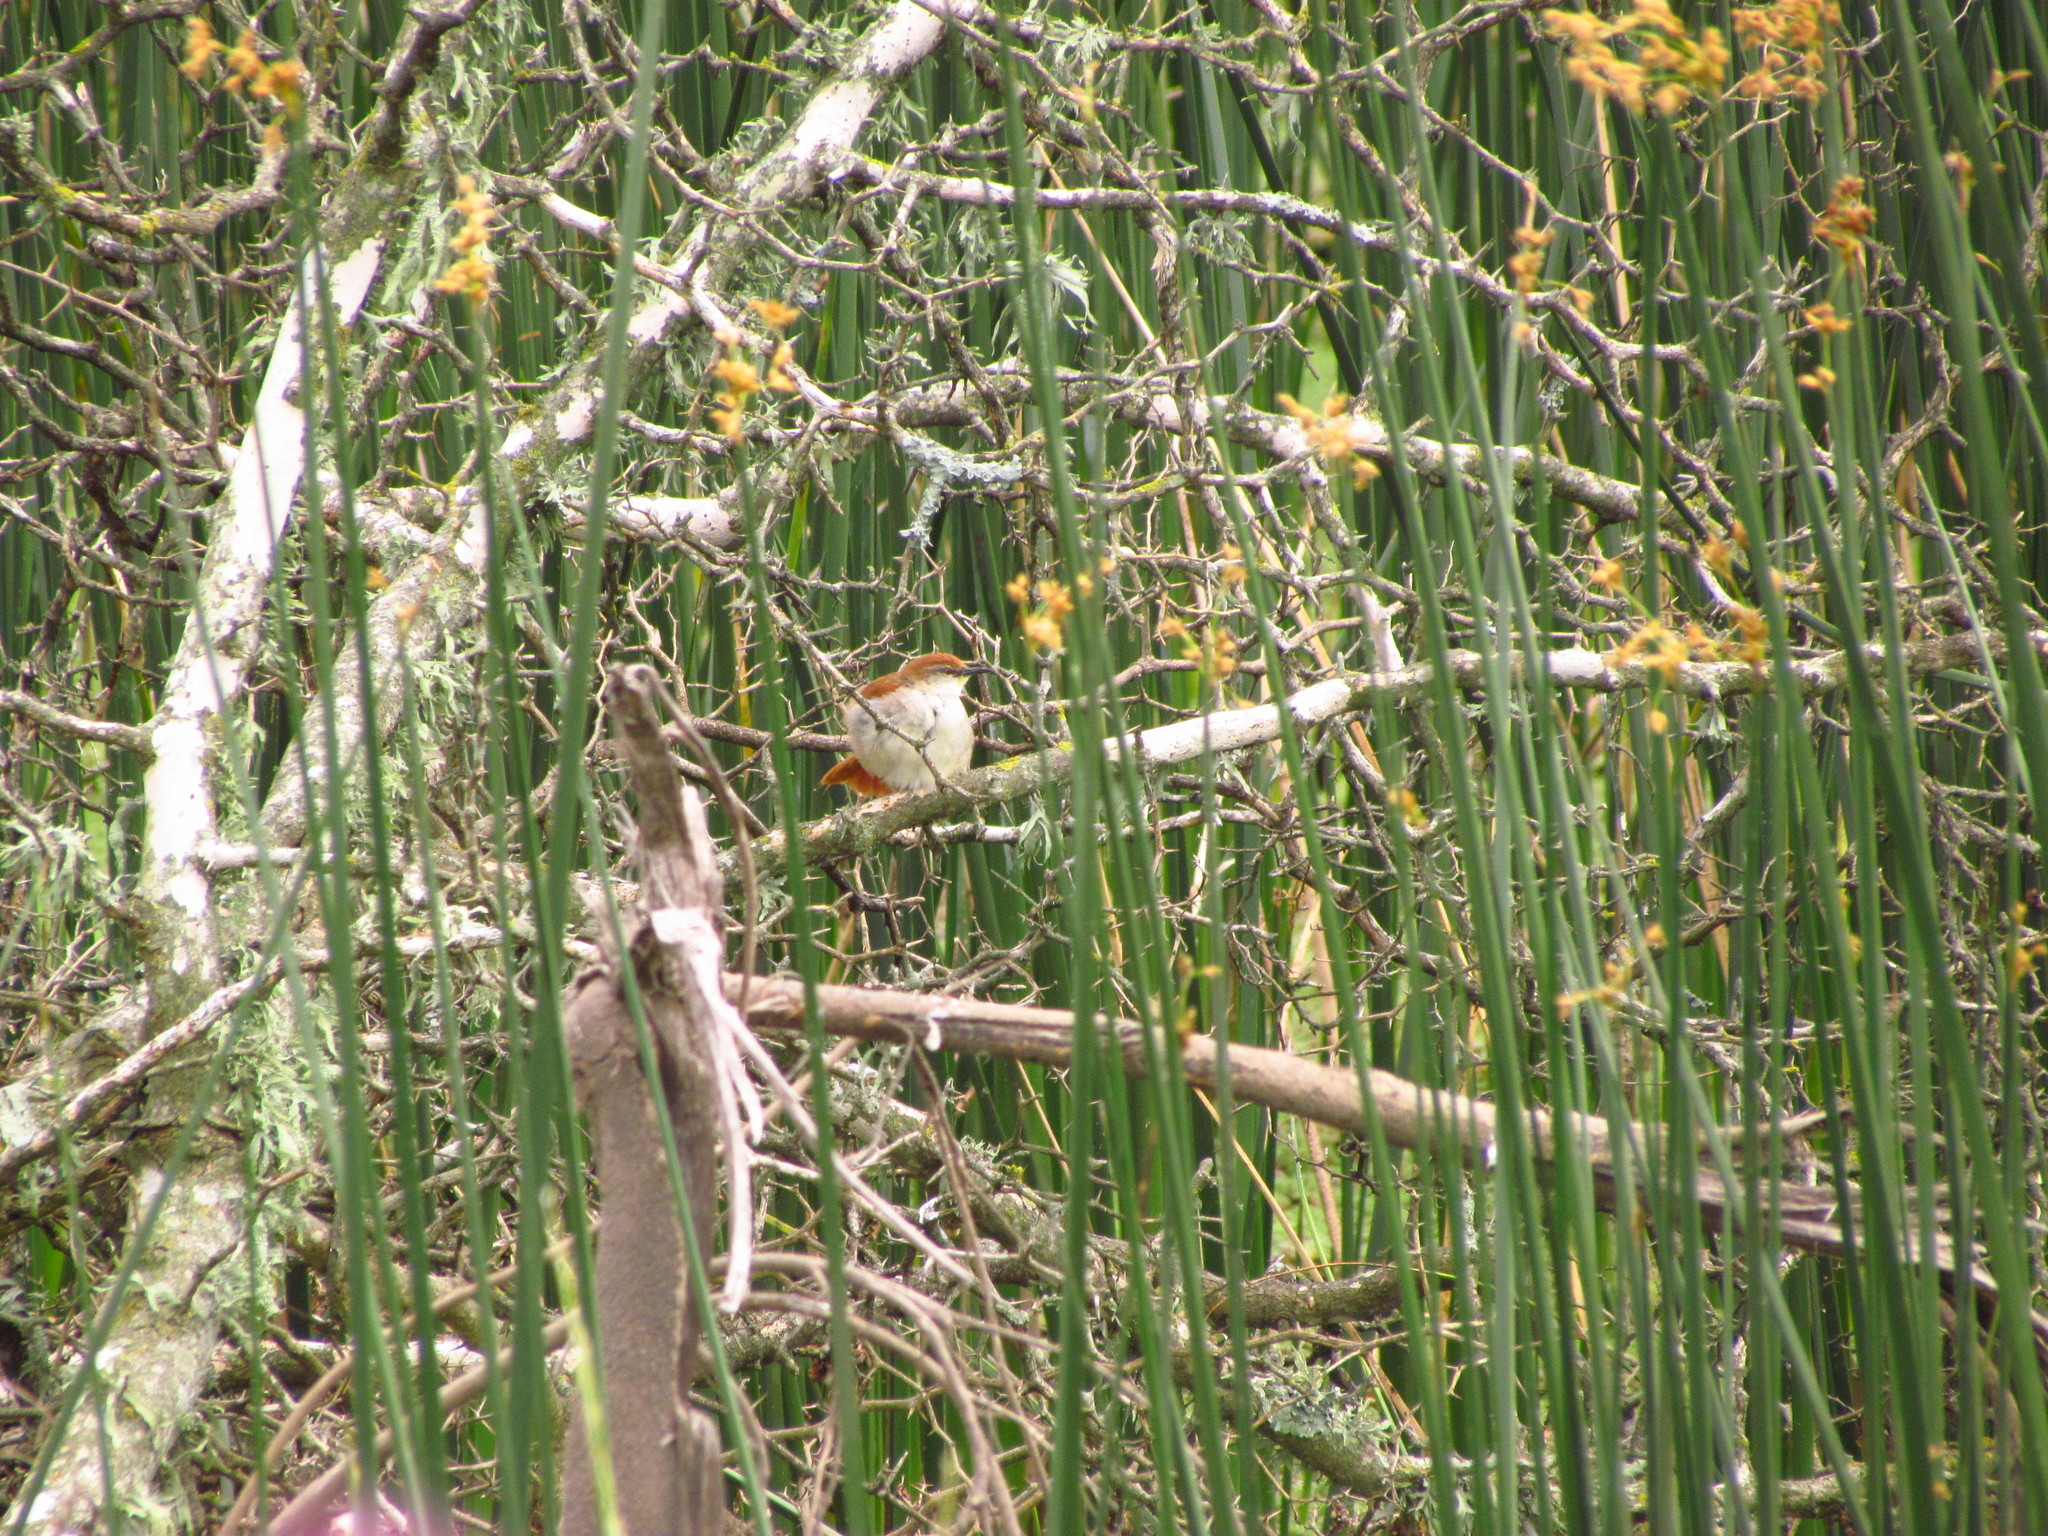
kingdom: Animalia
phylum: Chordata
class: Aves
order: Passeriformes
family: Furnariidae
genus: Certhiaxis
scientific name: Certhiaxis cinnamomeus
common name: Yellow-chinned spinetail
